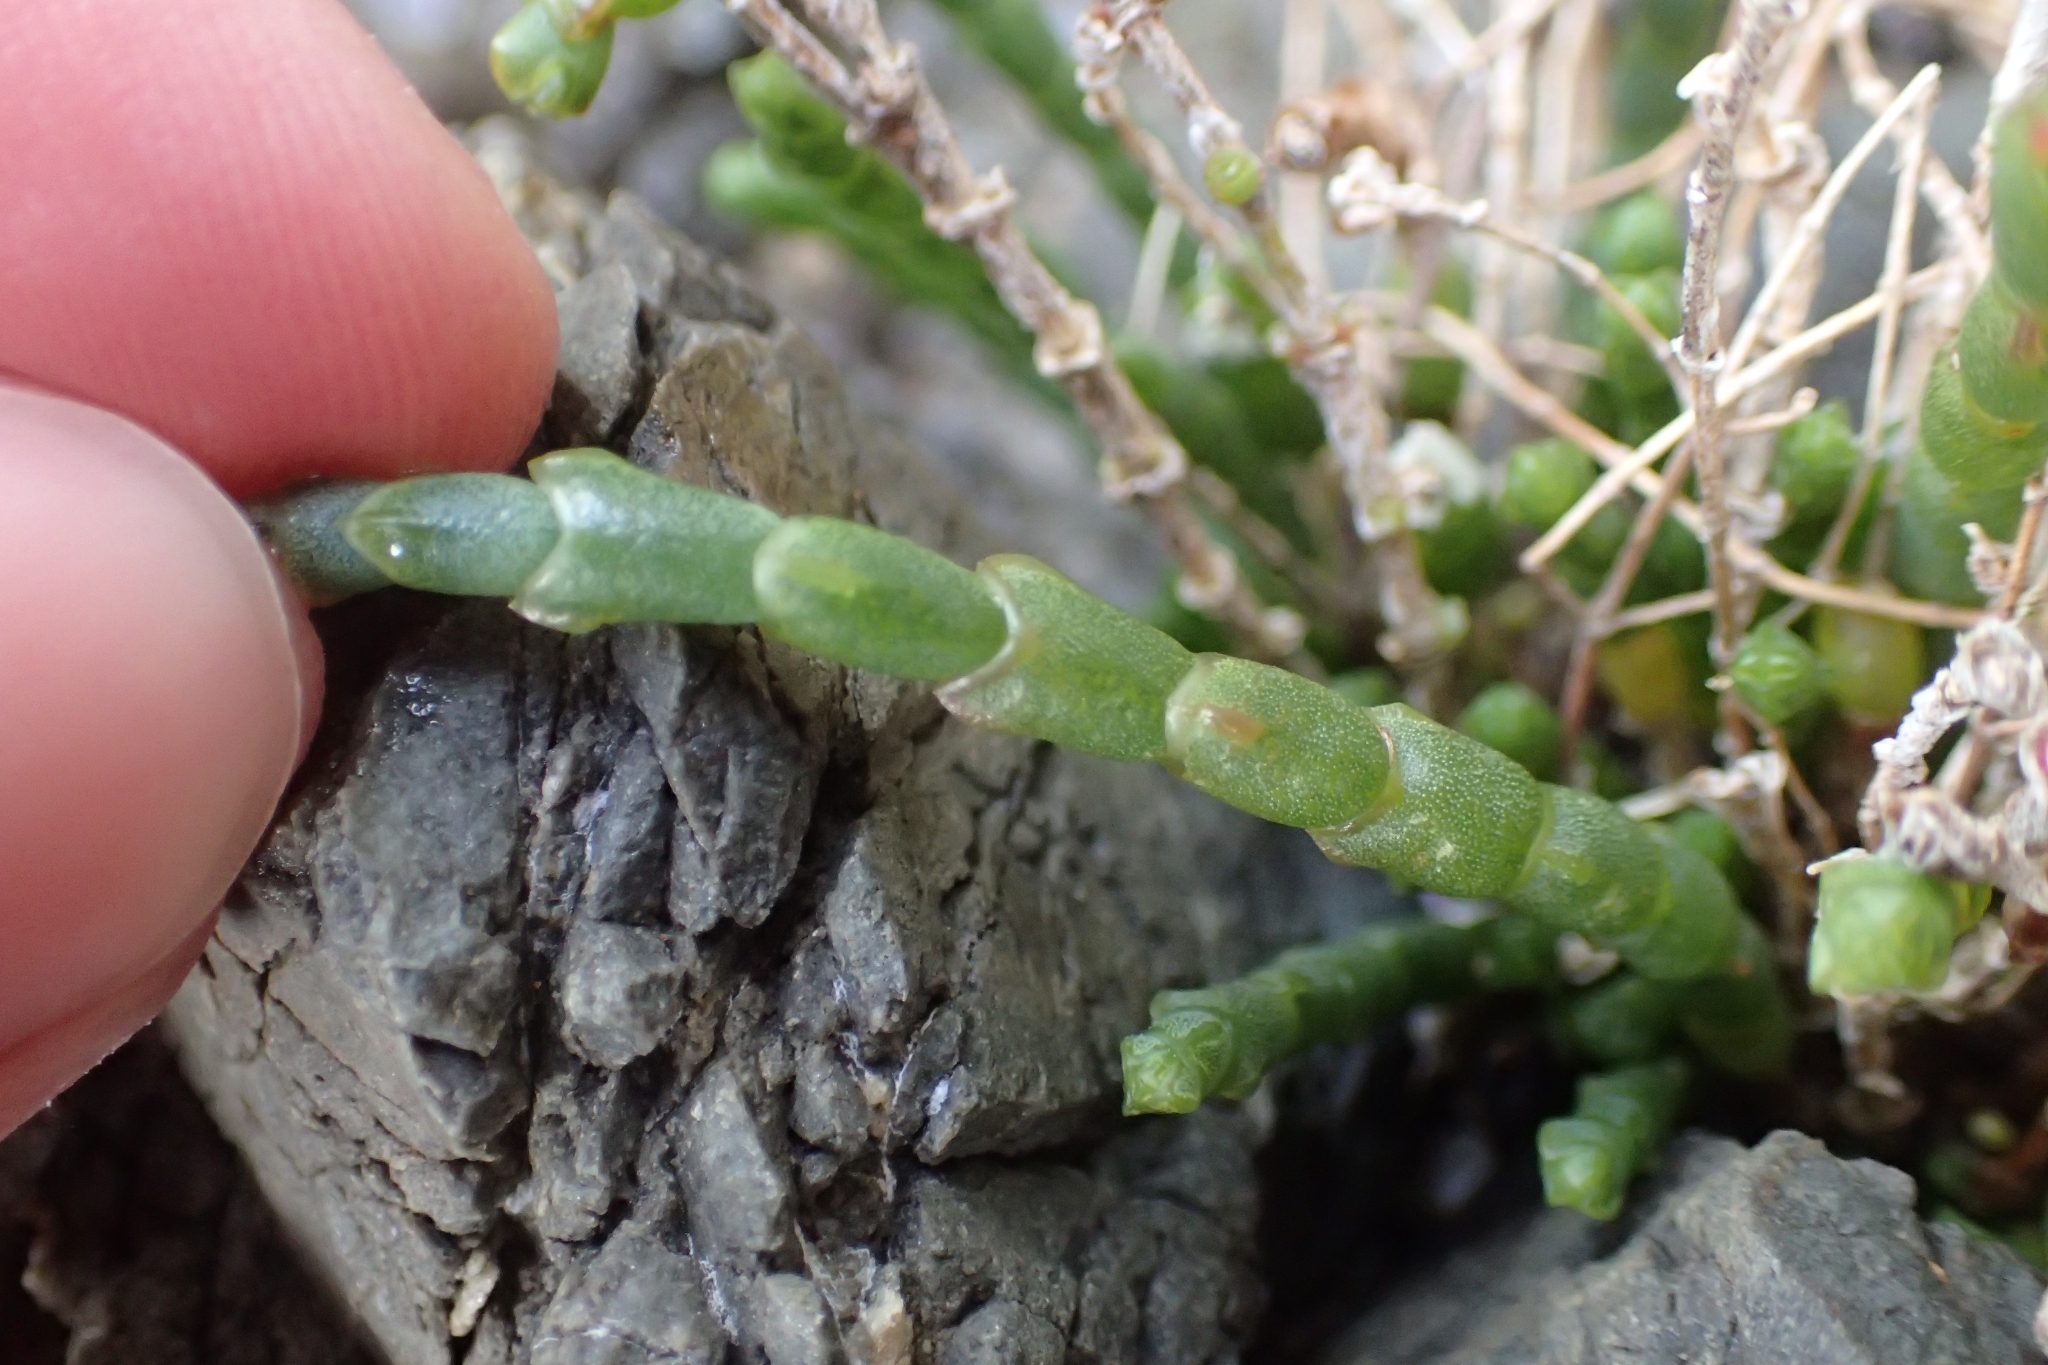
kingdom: Plantae
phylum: Tracheophyta
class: Magnoliopsida
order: Caryophyllales
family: Amaranthaceae
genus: Salicornia
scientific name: Salicornia quinqueflora
